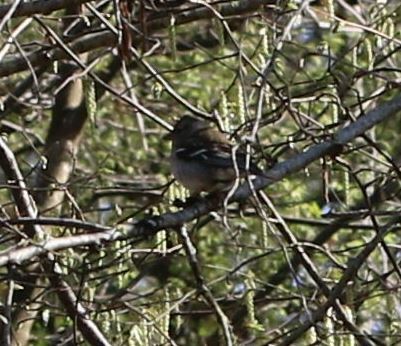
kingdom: Animalia
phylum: Chordata
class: Aves
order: Passeriformes
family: Fringillidae
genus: Fringilla
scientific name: Fringilla coelebs
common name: Common chaffinch
